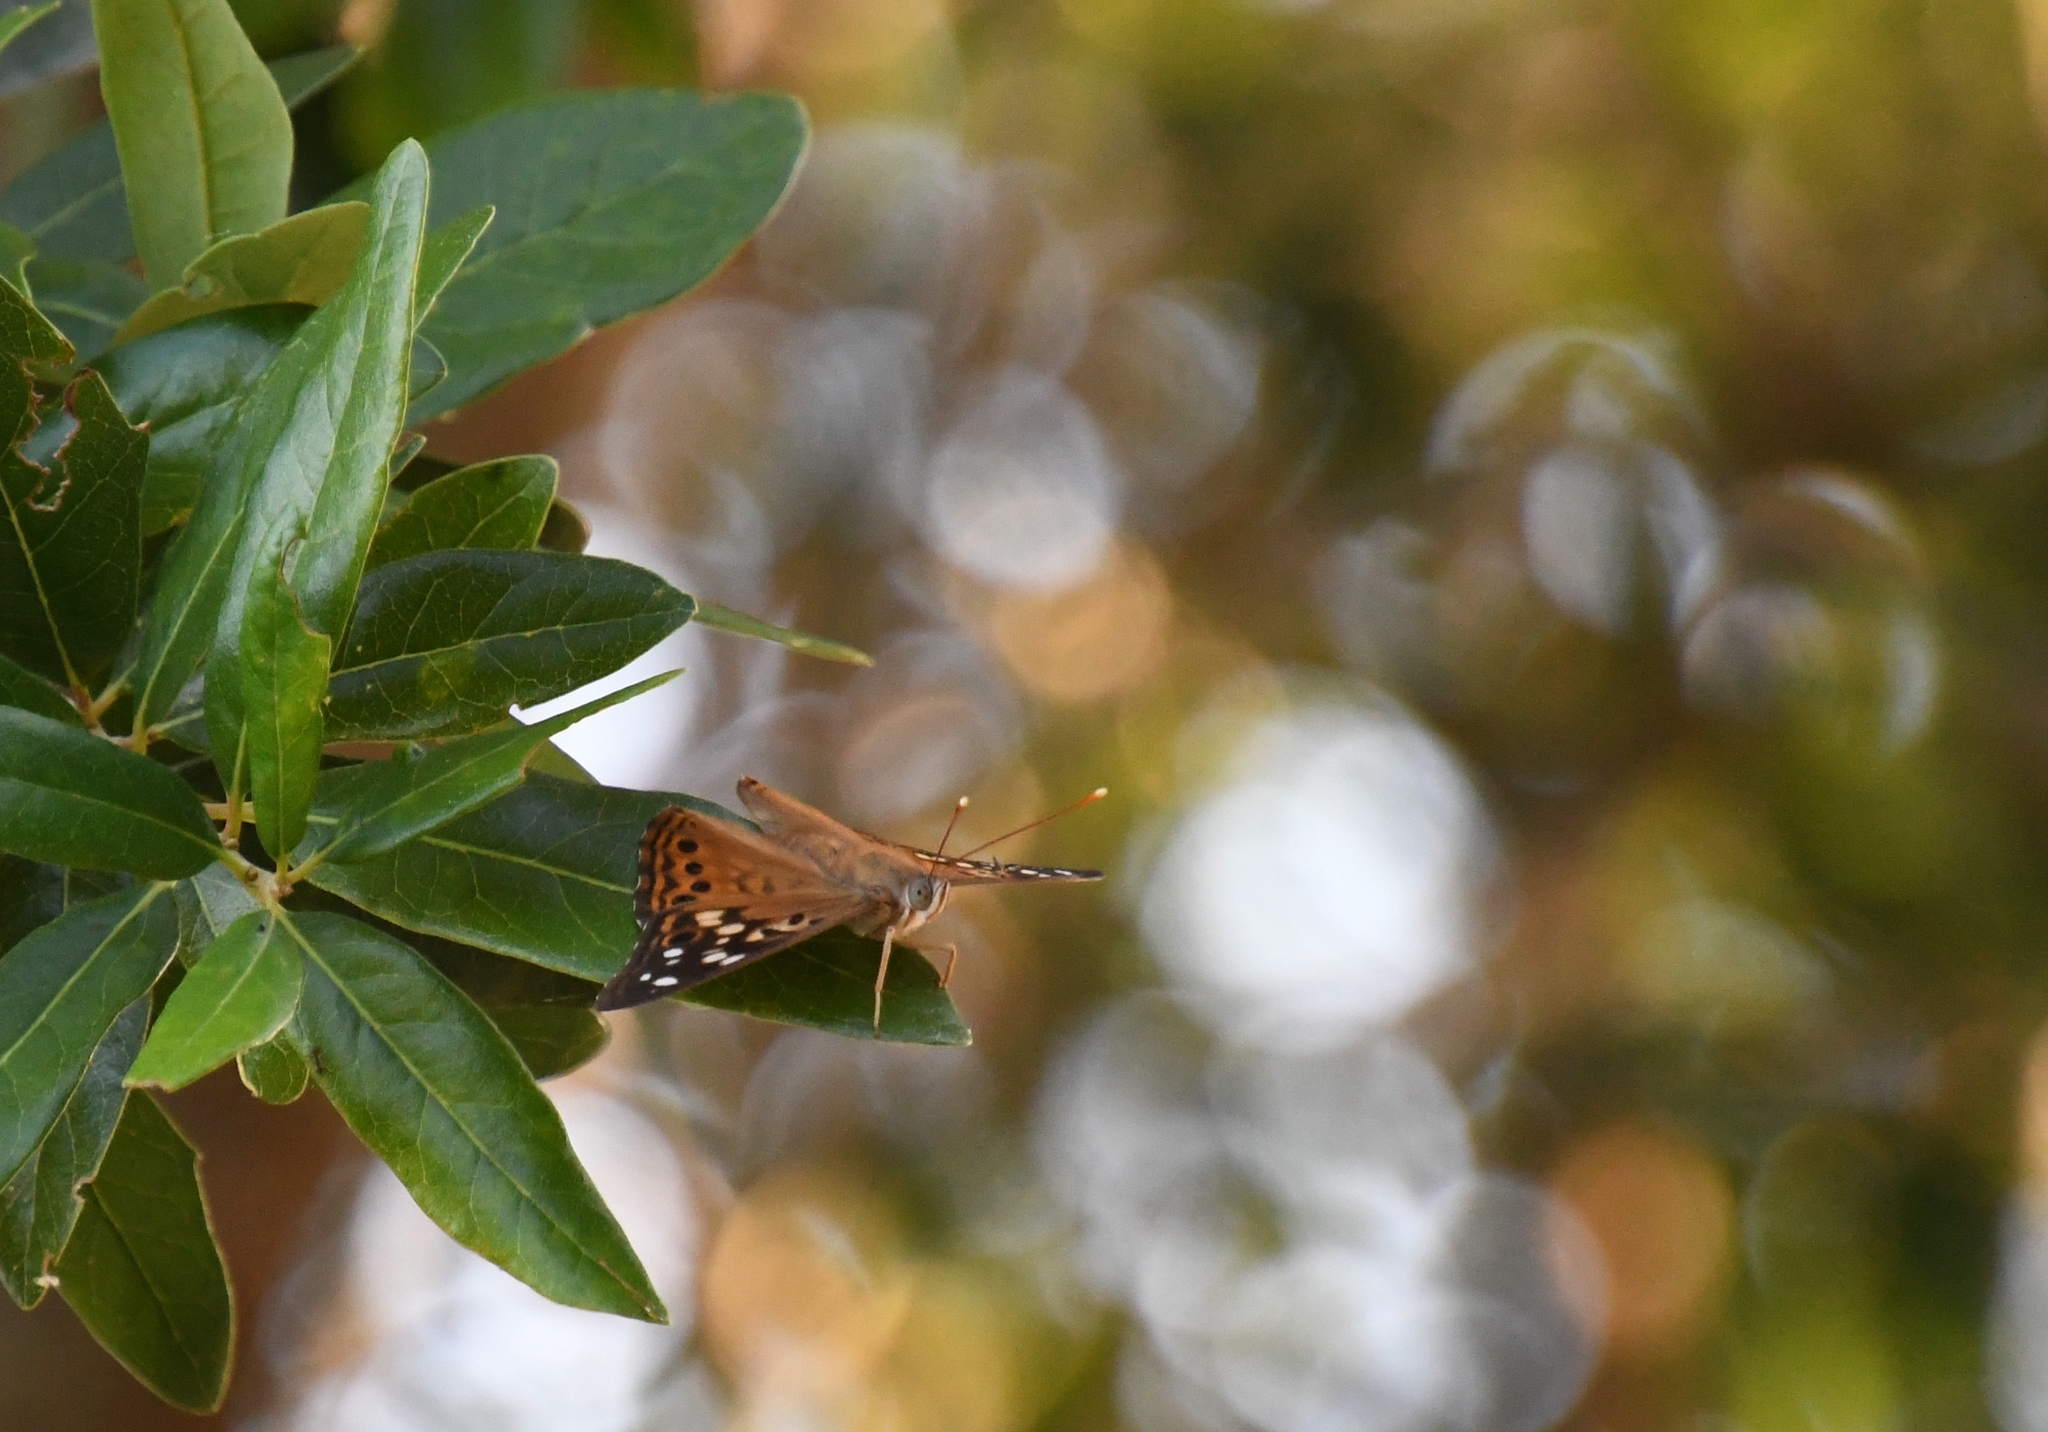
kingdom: Animalia
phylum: Arthropoda
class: Insecta
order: Lepidoptera
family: Nymphalidae
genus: Asterocampa
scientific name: Asterocampa celtis
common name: Hackberry emperor
